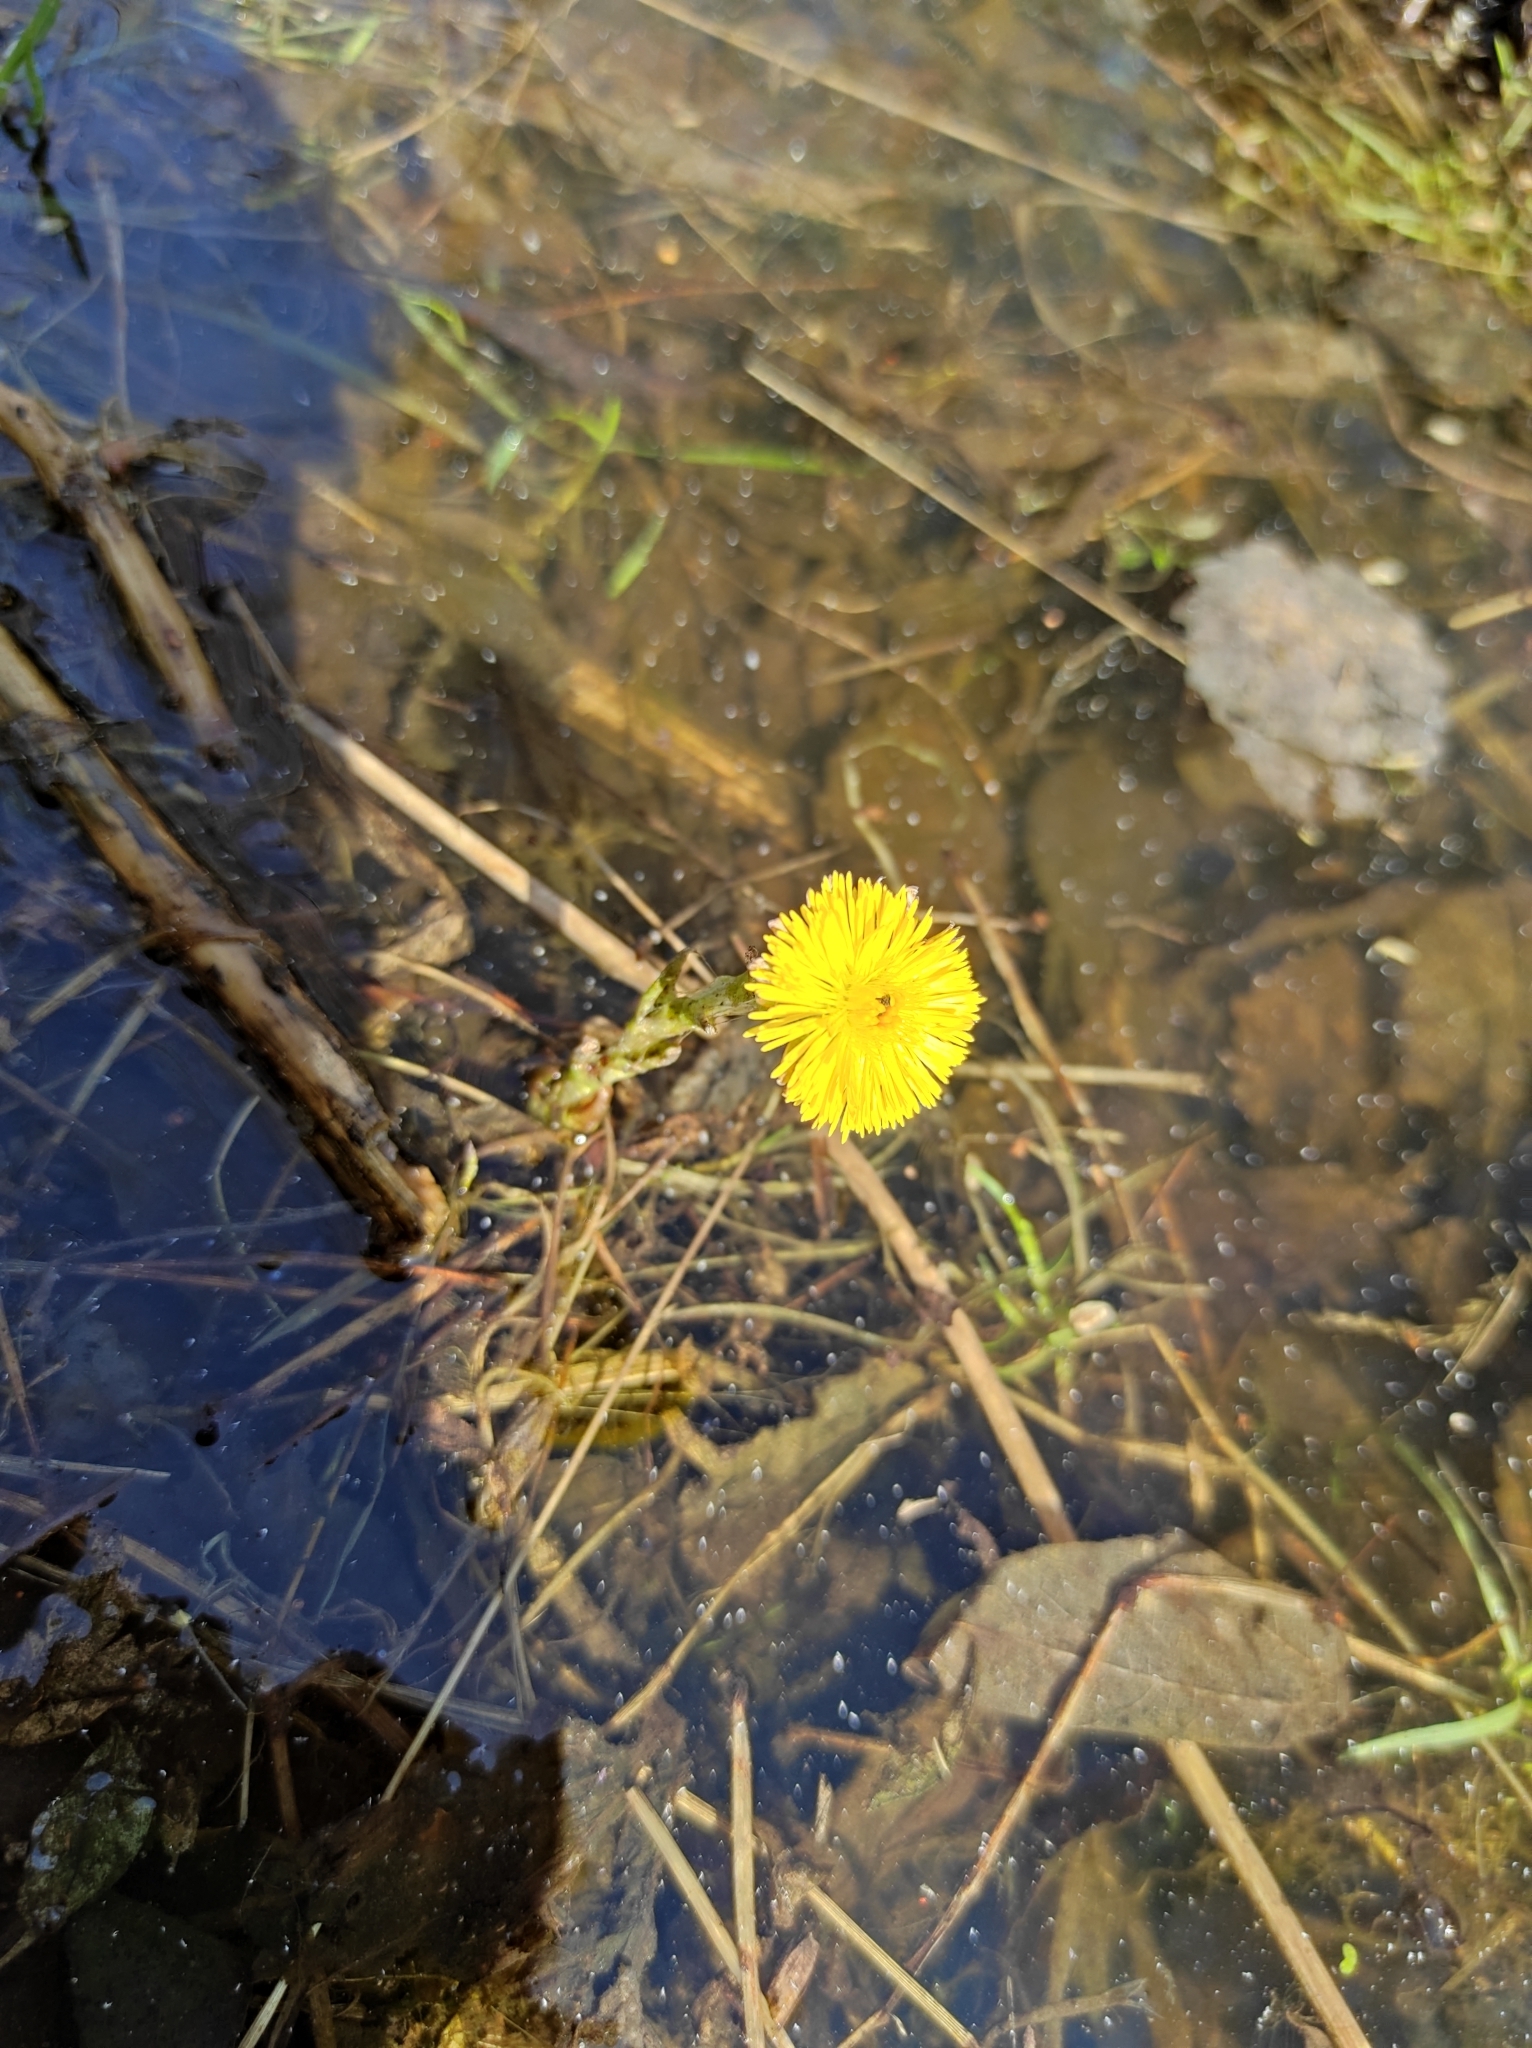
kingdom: Plantae
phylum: Tracheophyta
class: Magnoliopsida
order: Asterales
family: Asteraceae
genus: Tussilago
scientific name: Tussilago farfara
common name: Coltsfoot
